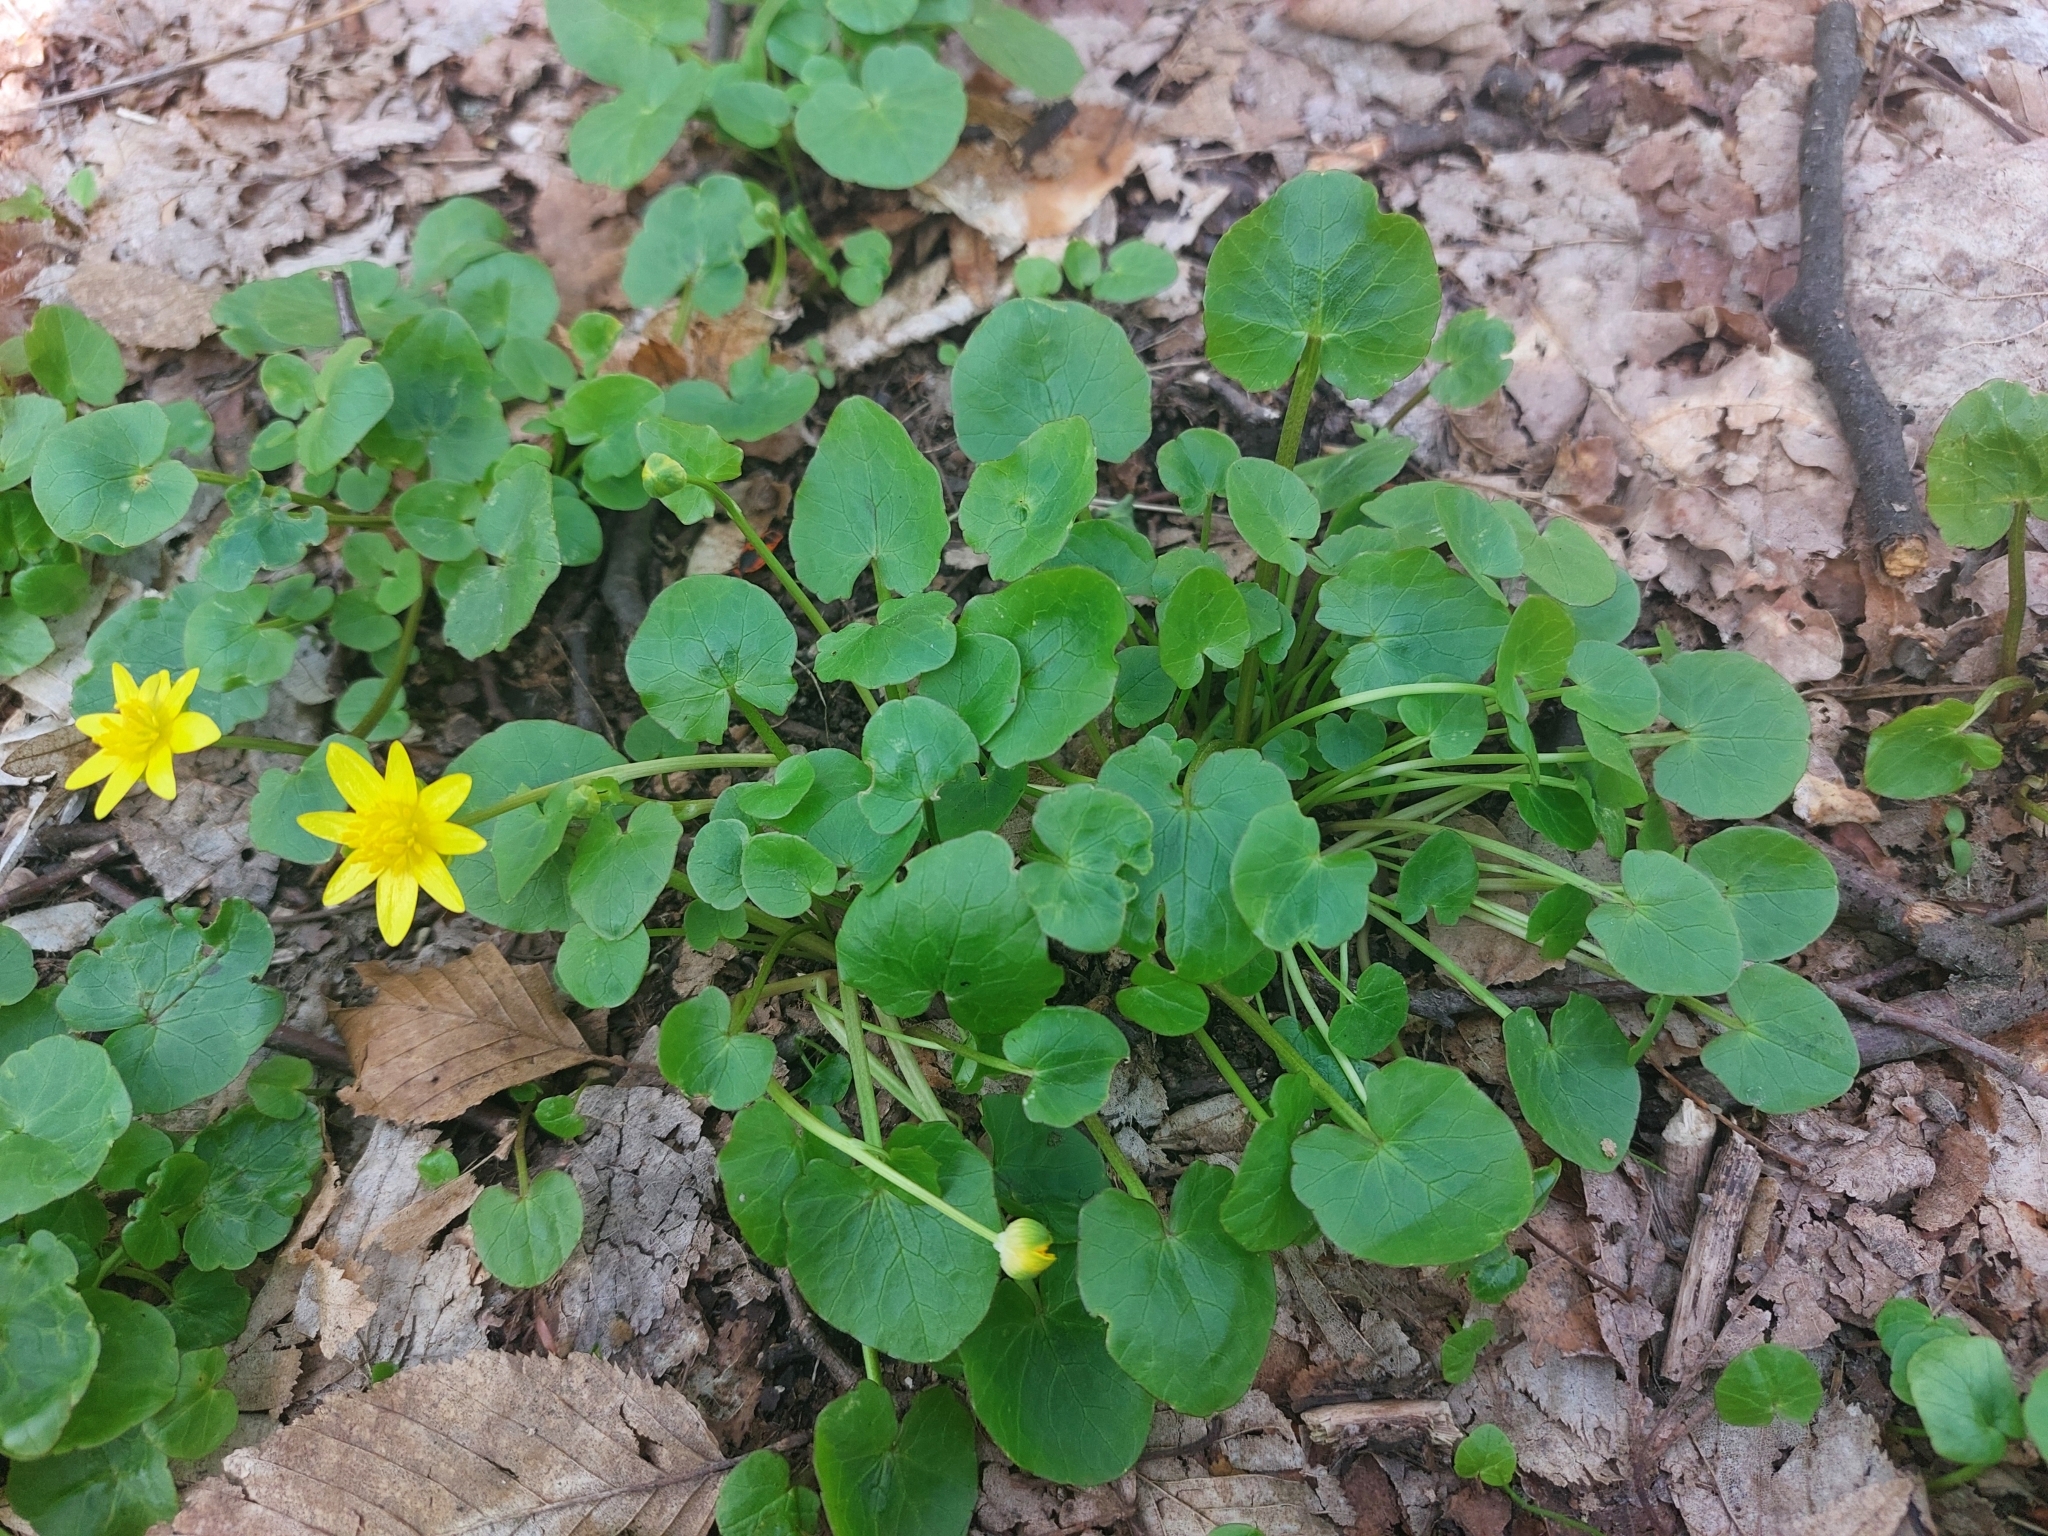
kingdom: Plantae
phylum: Tracheophyta
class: Magnoliopsida
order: Ranunculales
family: Ranunculaceae
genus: Ficaria
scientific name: Ficaria verna
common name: Lesser celandine
